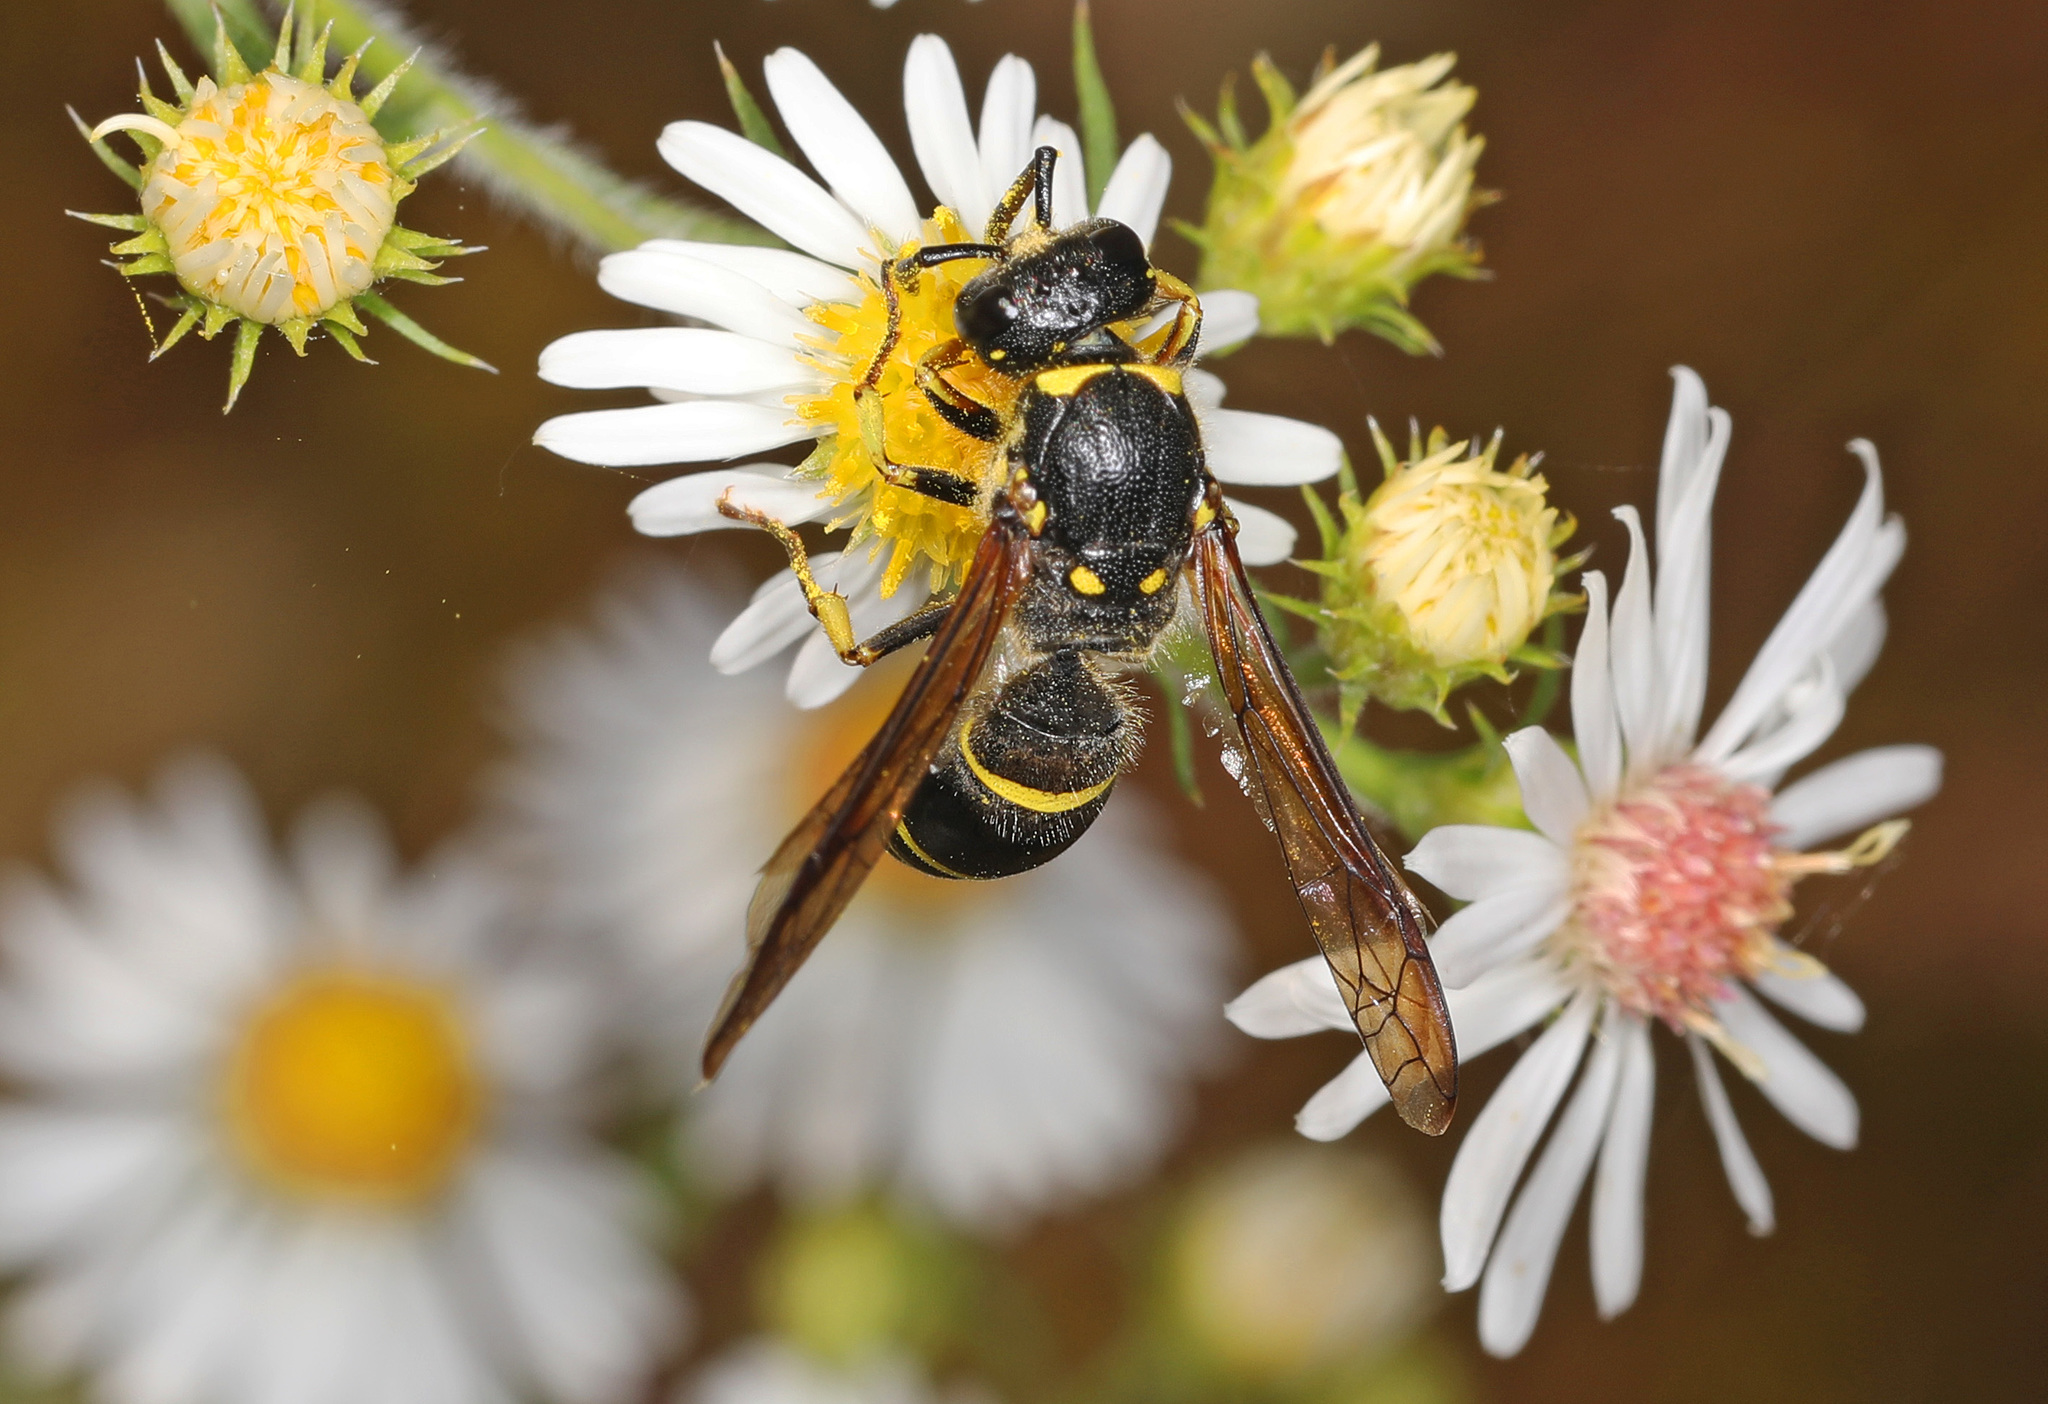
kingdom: Animalia
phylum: Arthropoda
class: Insecta
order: Hymenoptera
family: Vespidae
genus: Ancistrocerus
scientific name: Ancistrocerus
